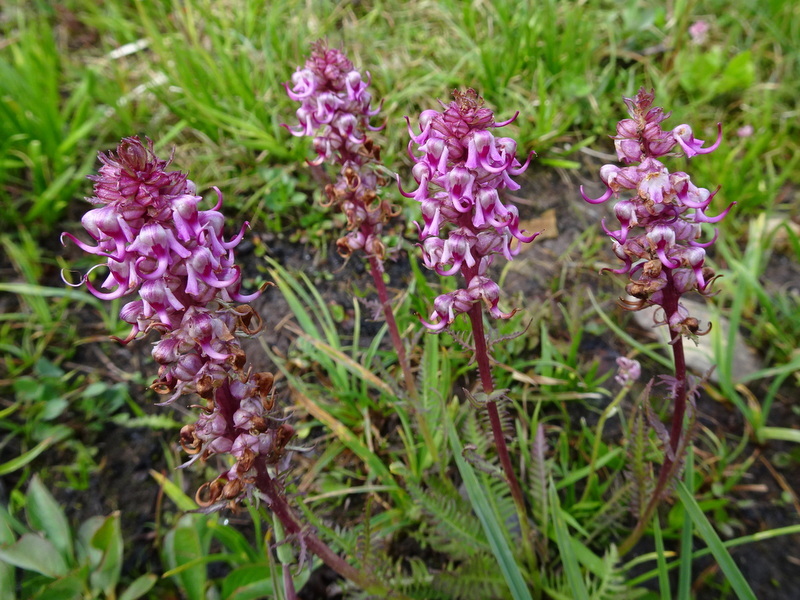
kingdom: Plantae
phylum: Tracheophyta
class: Magnoliopsida
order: Lamiales
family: Orobanchaceae
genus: Pedicularis
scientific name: Pedicularis groenlandica
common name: Elephant's-head
